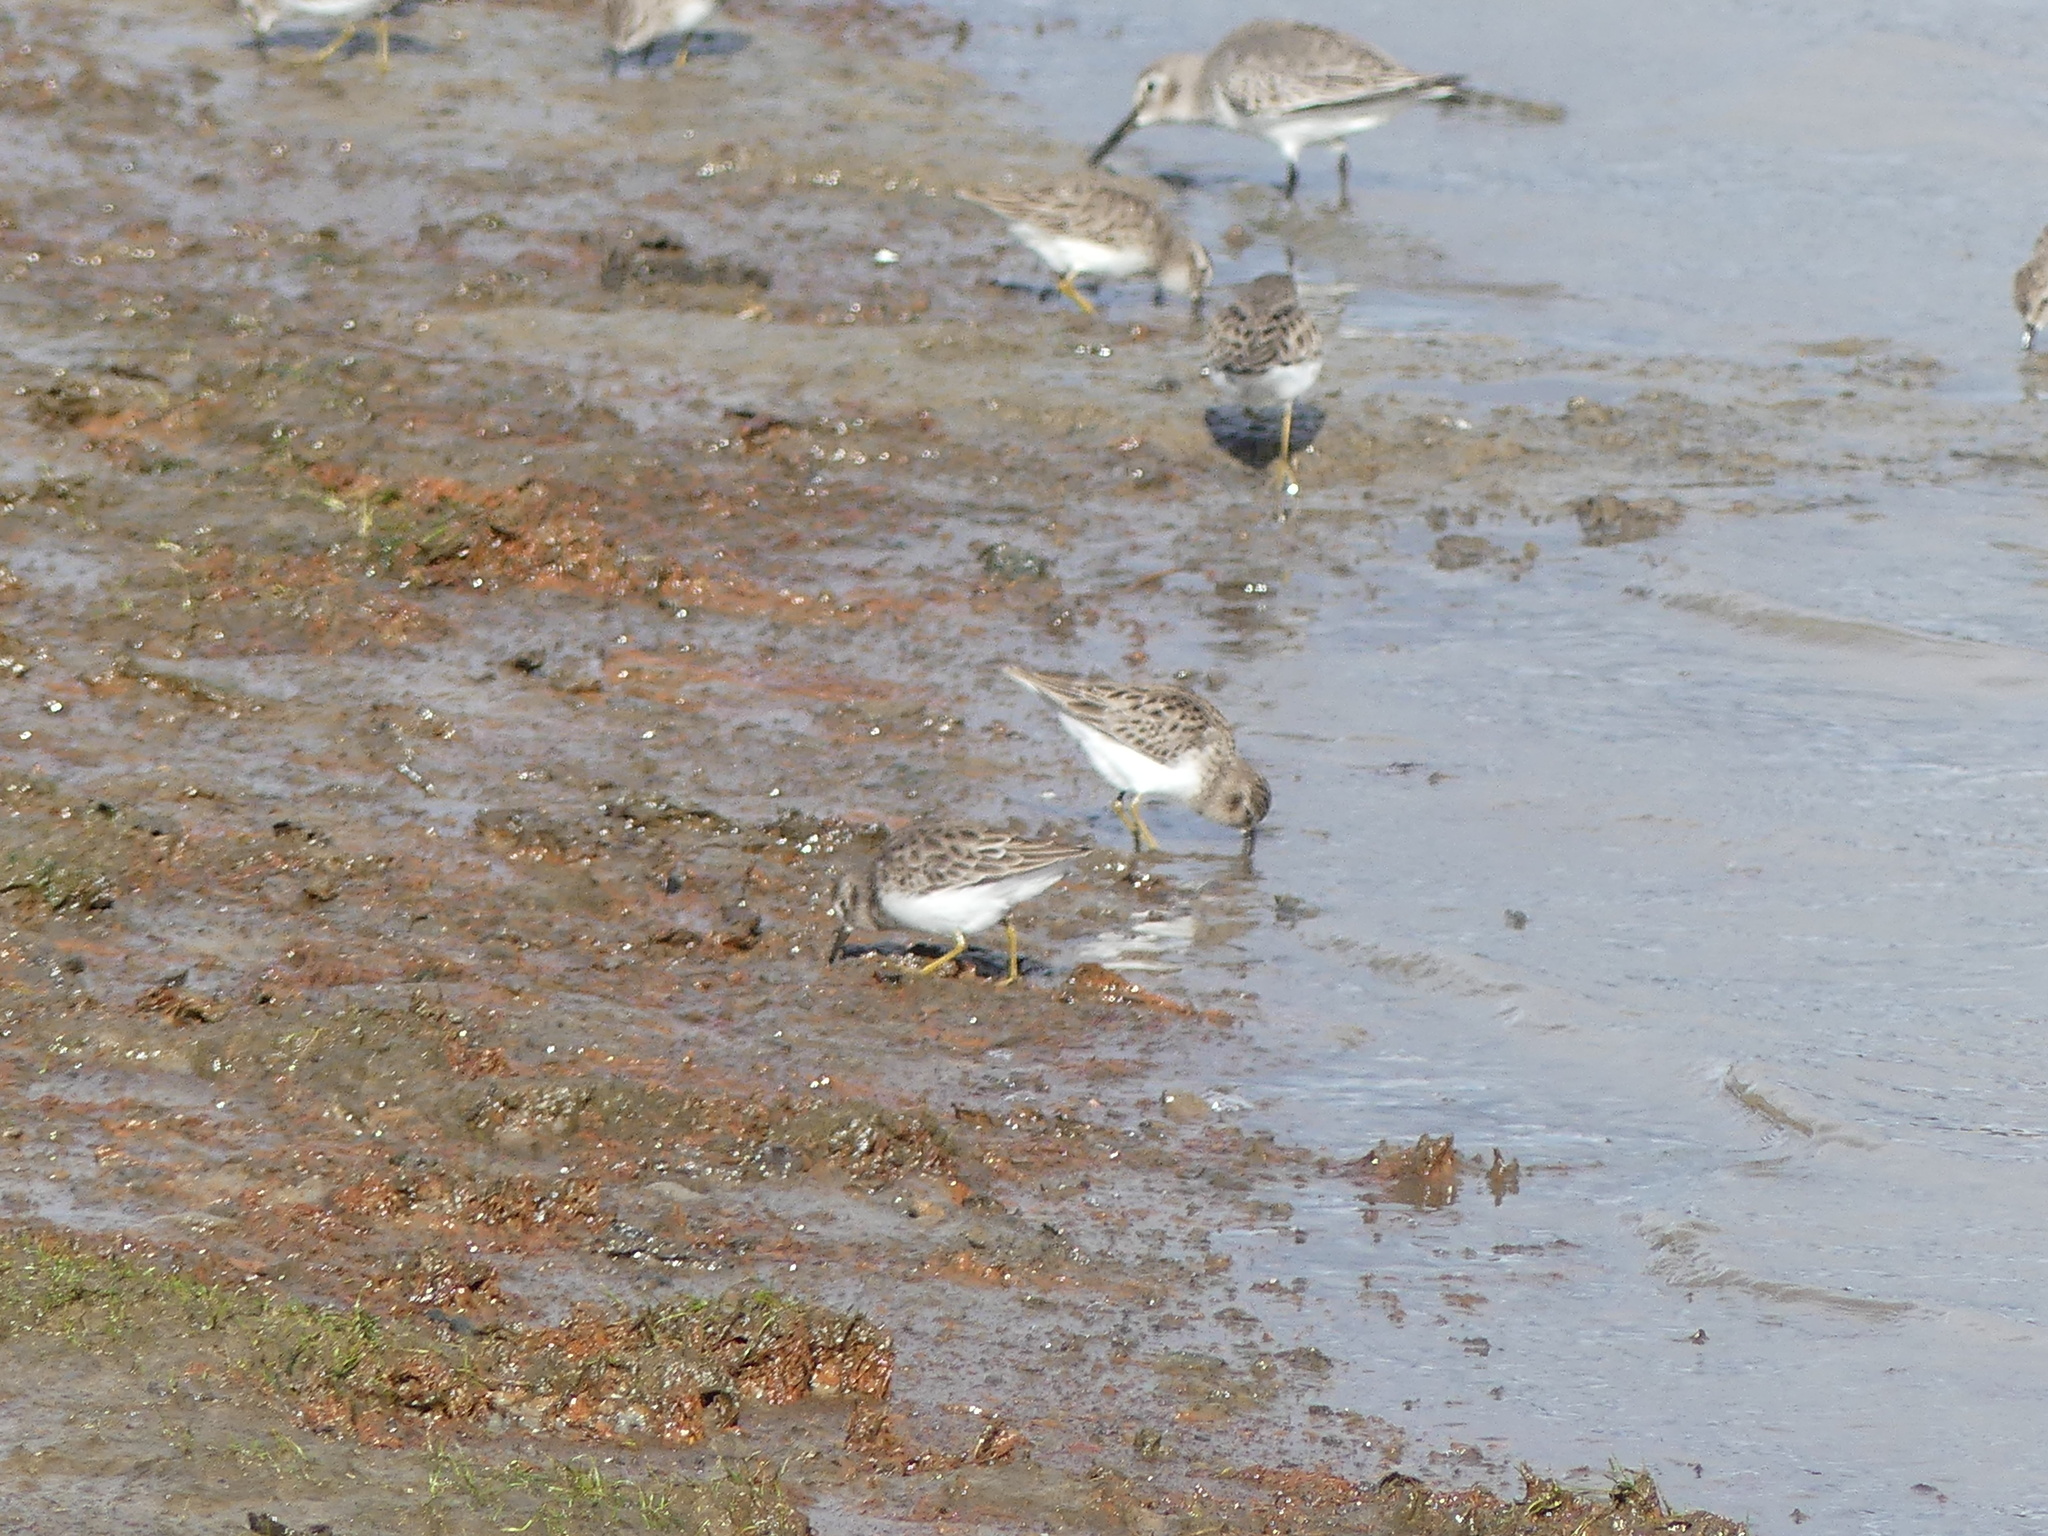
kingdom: Animalia
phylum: Chordata
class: Aves
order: Charadriiformes
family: Scolopacidae
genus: Calidris
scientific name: Calidris minutilla
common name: Least sandpiper
